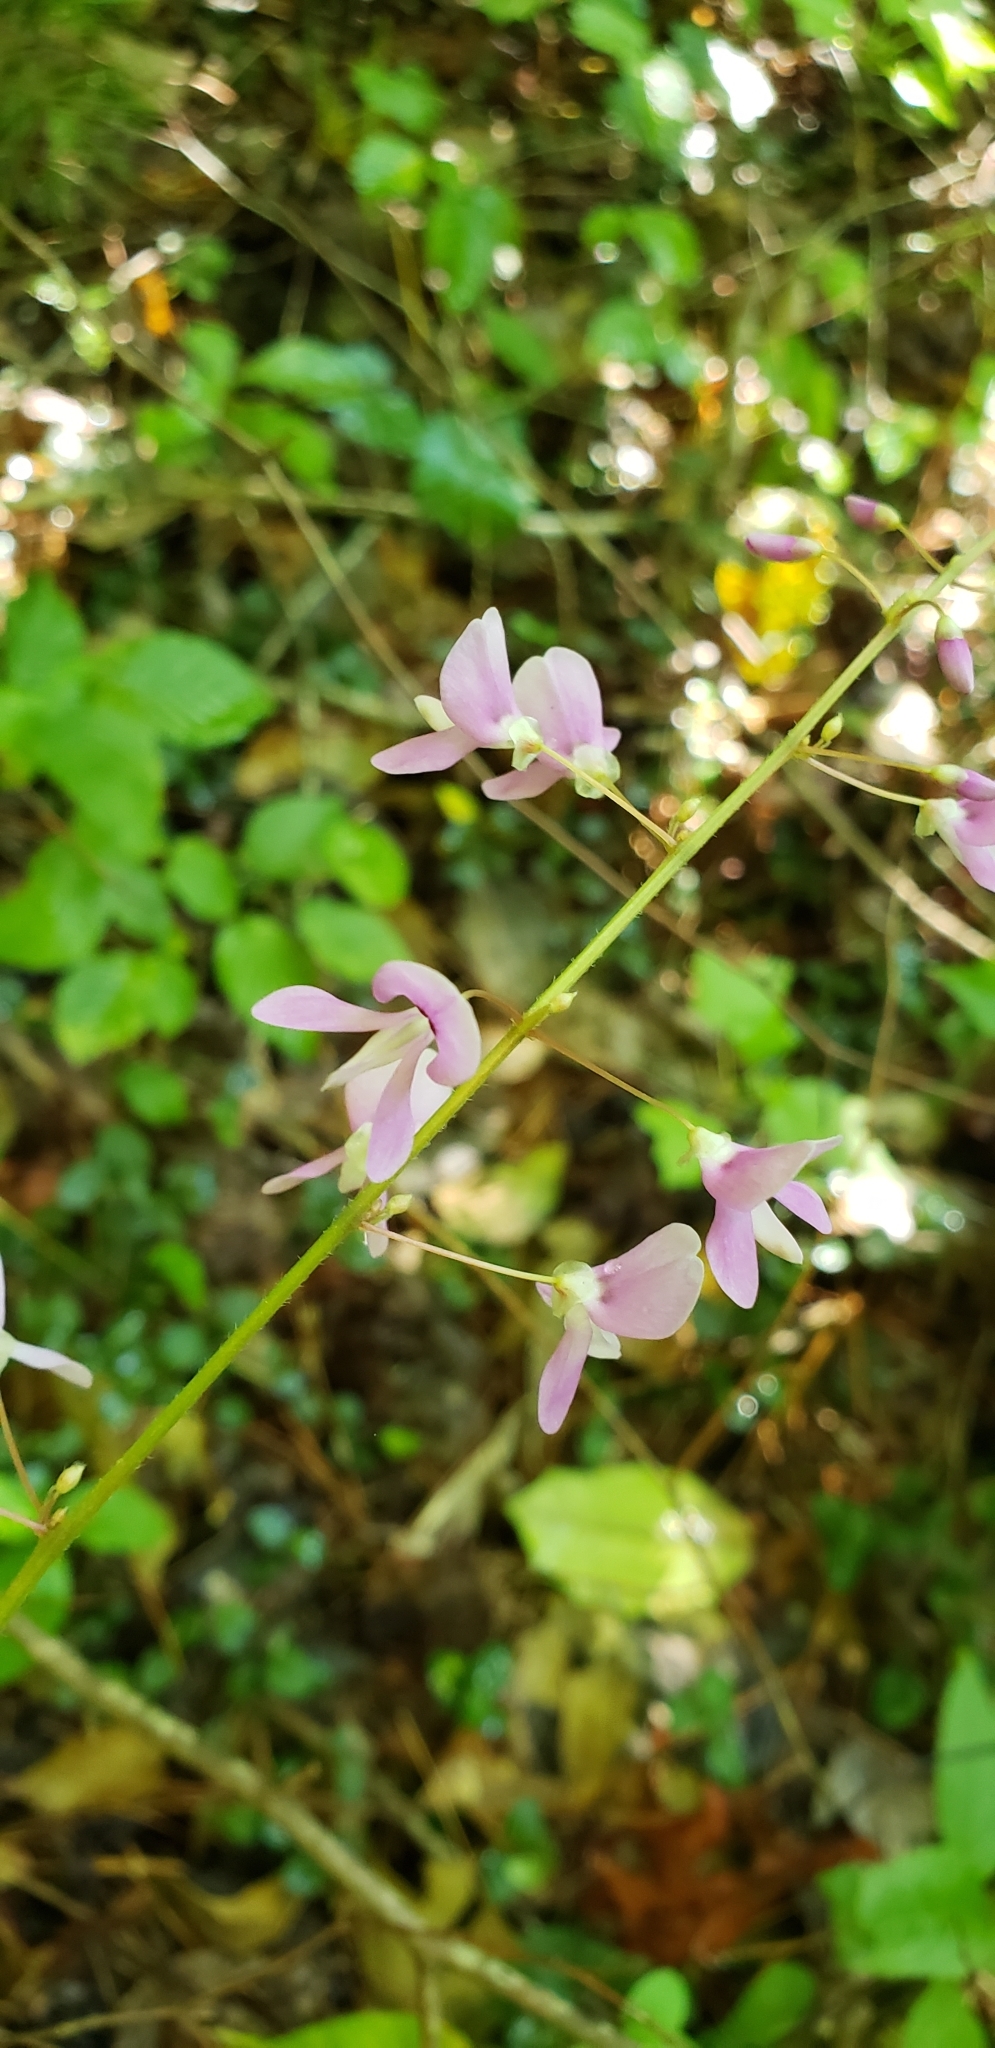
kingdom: Plantae
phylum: Tracheophyta
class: Magnoliopsida
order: Fabales
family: Fabaceae
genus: Hylodesmum
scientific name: Hylodesmum nudiflorum
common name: Bare-stemmed tick-trefoil
